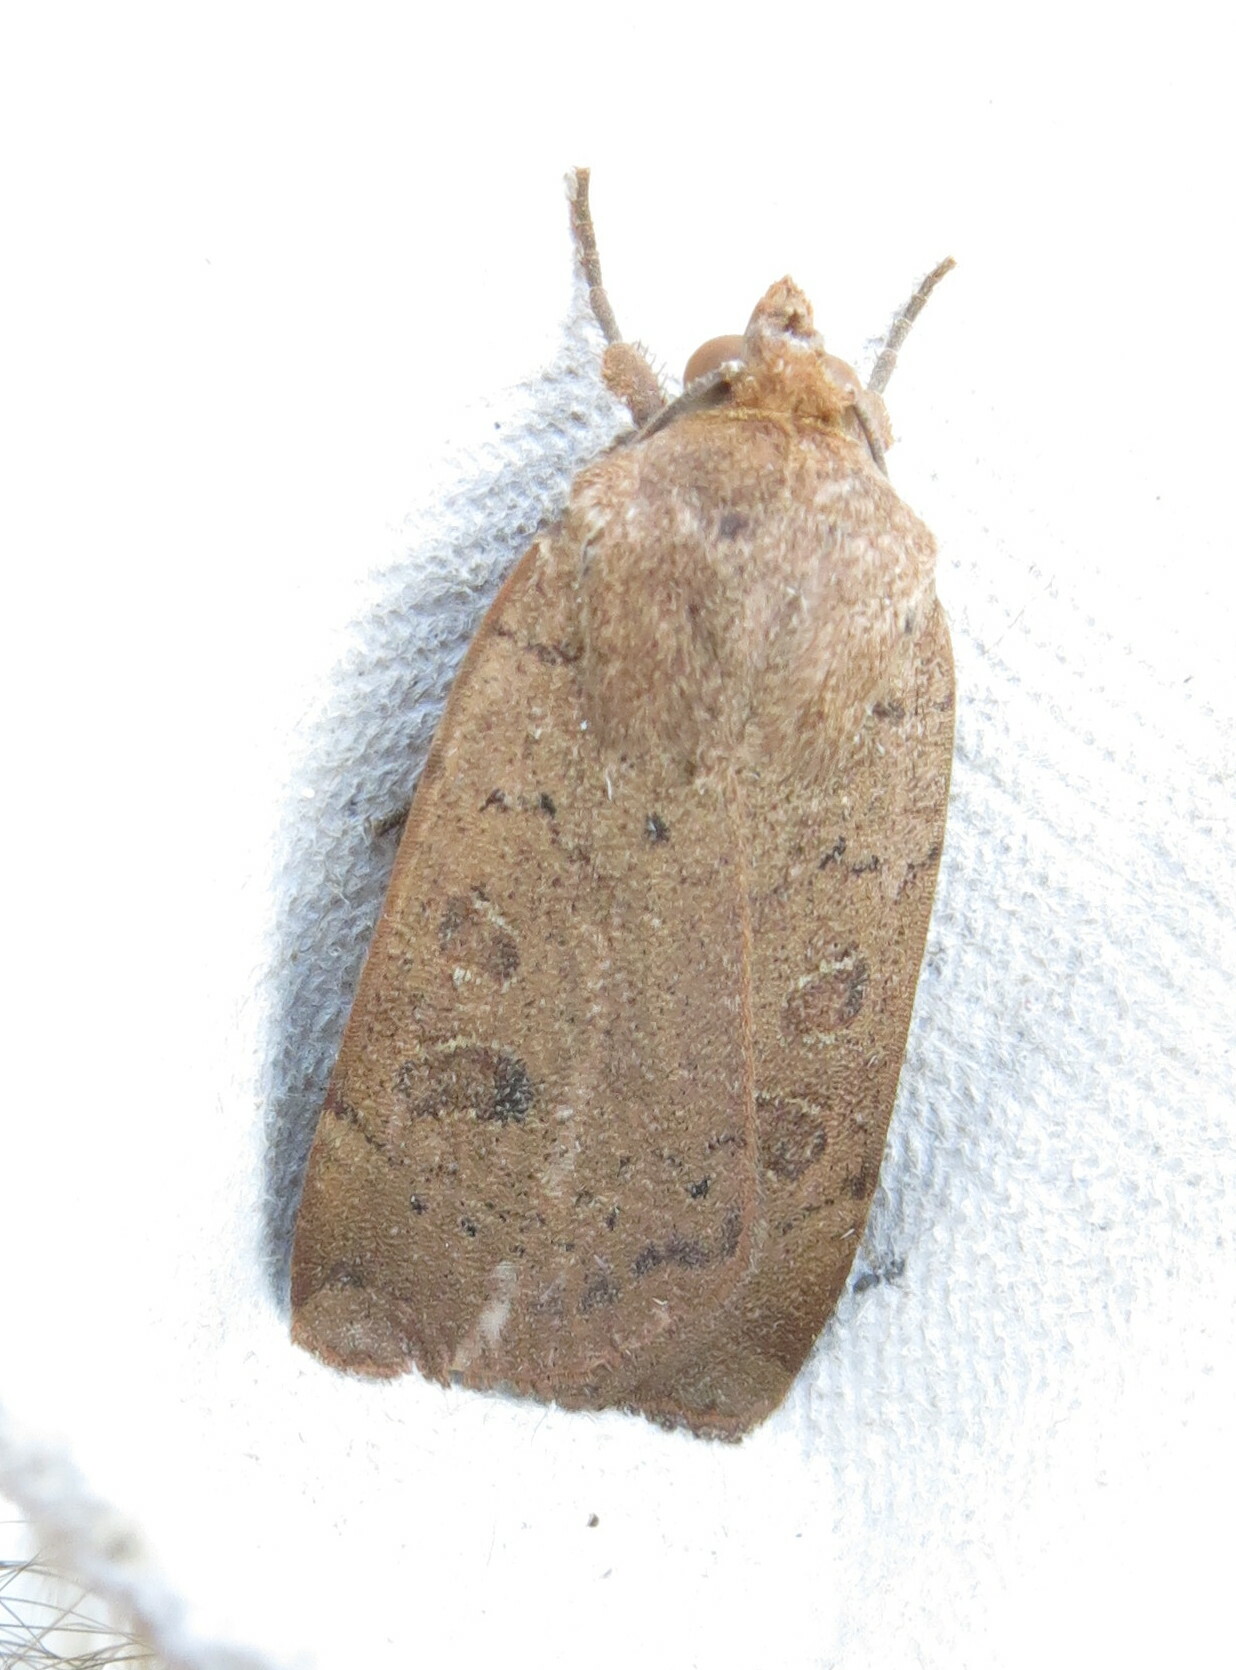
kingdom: Animalia
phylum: Arthropoda
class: Insecta
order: Lepidoptera
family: Noctuidae
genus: Noctua
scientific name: Noctua comes
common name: Lesser yellow underwing
